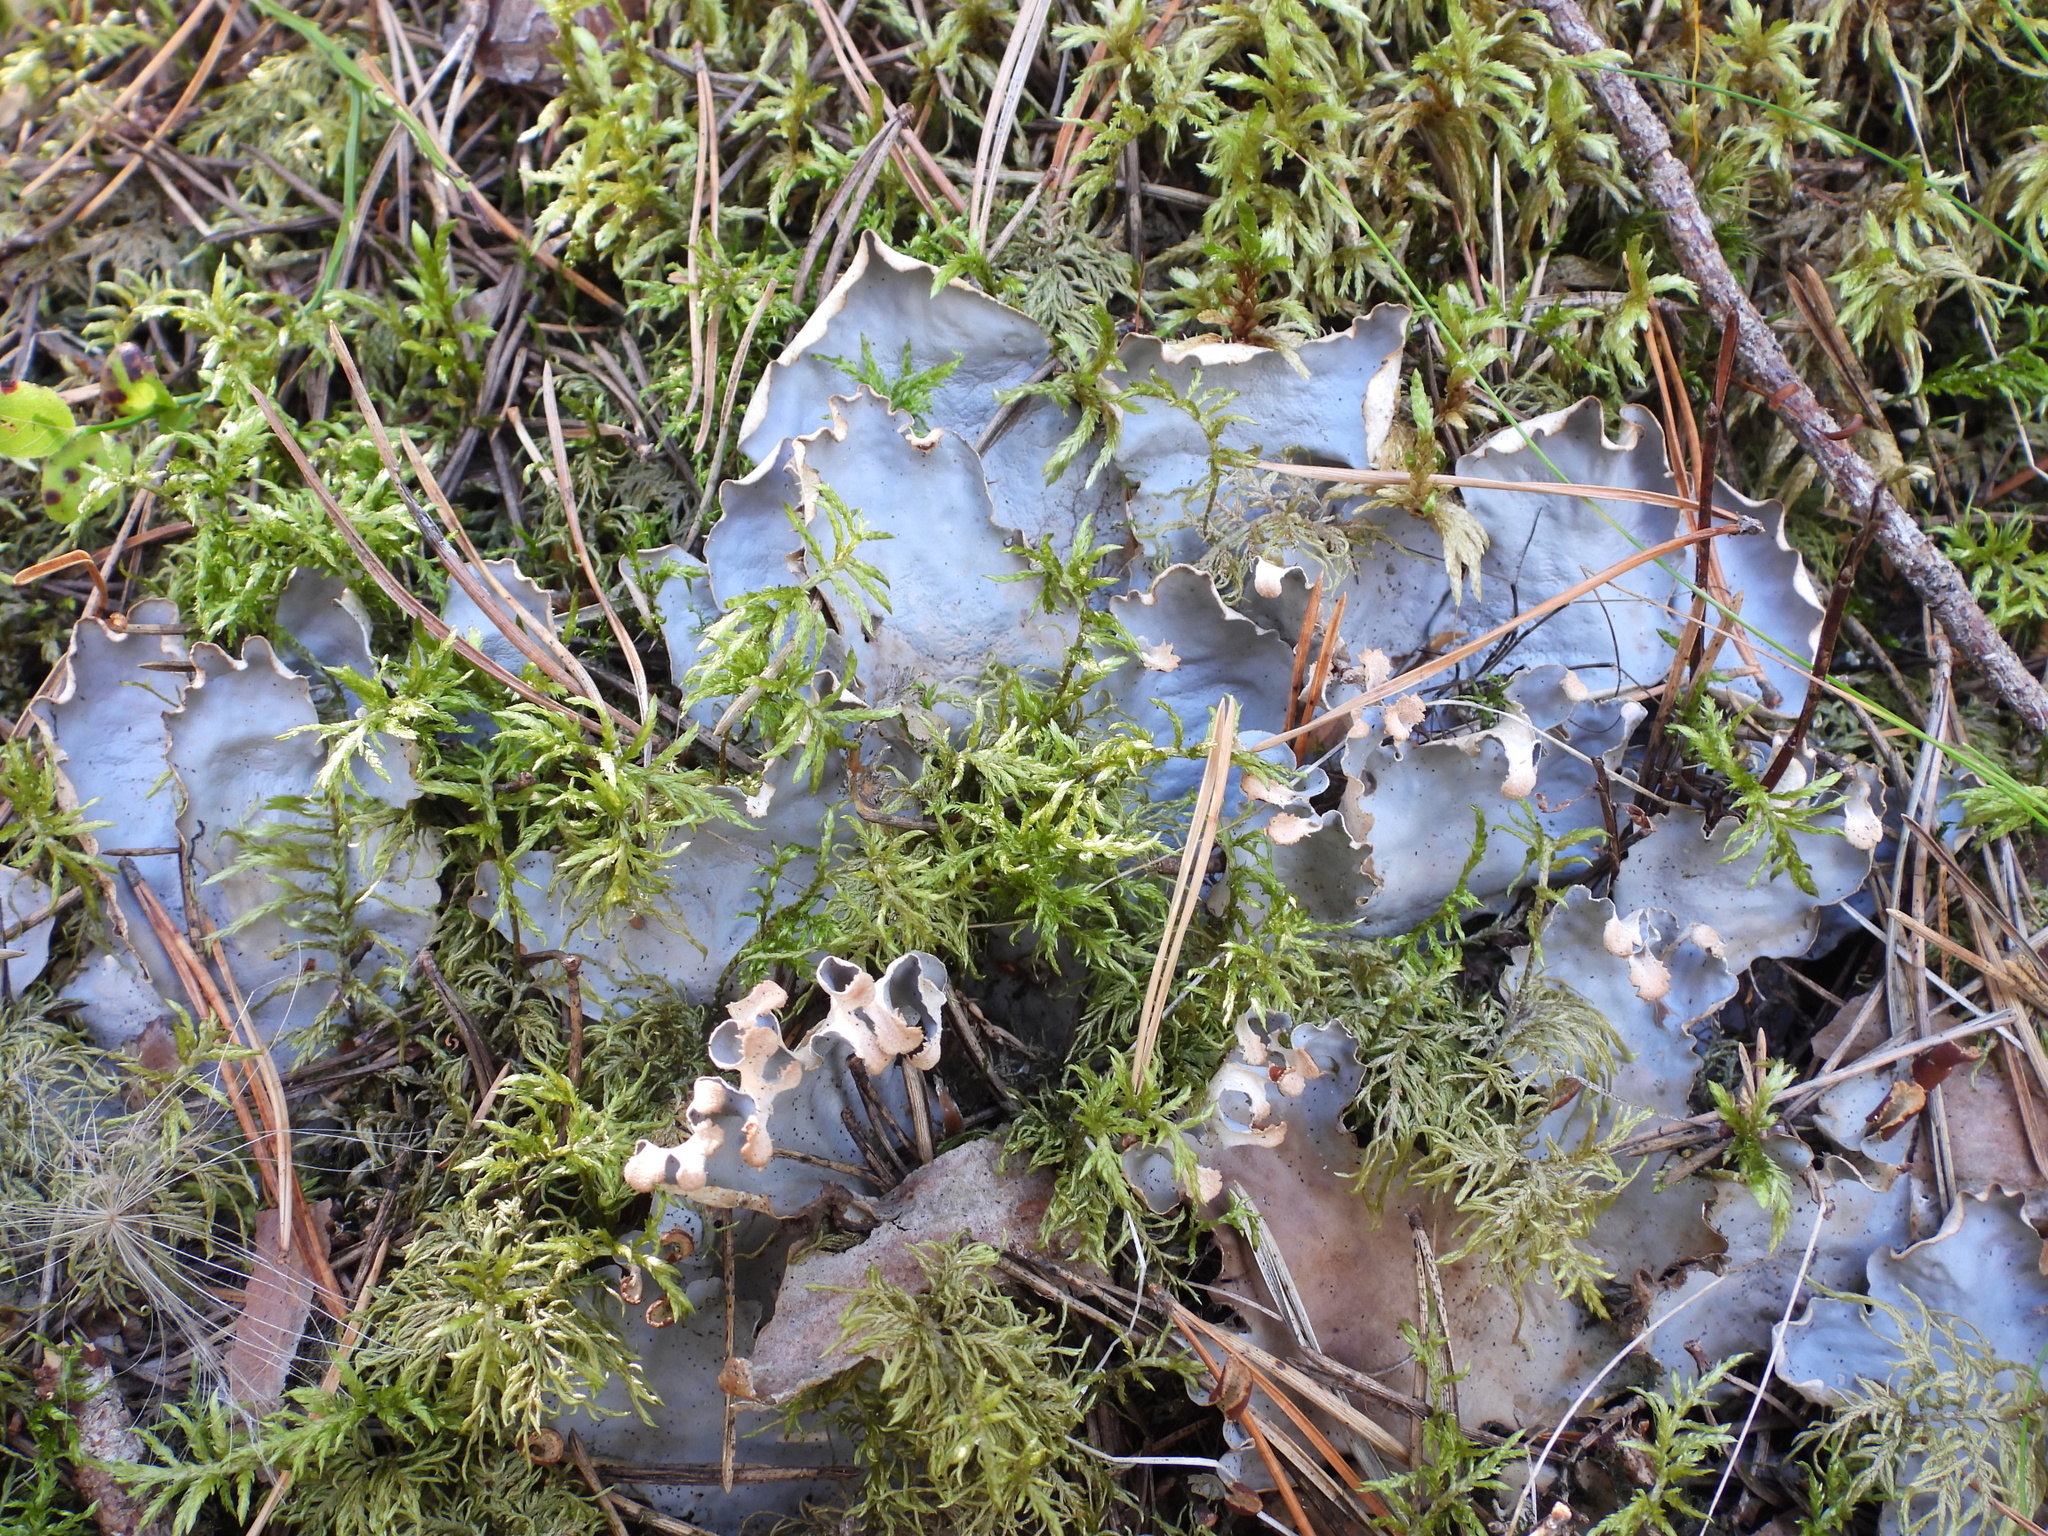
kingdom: Fungi
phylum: Ascomycota
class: Lecanoromycetes
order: Peltigerales
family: Peltigeraceae
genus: Peltigera
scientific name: Peltigera neopolydactyla
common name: Carpet pelt
